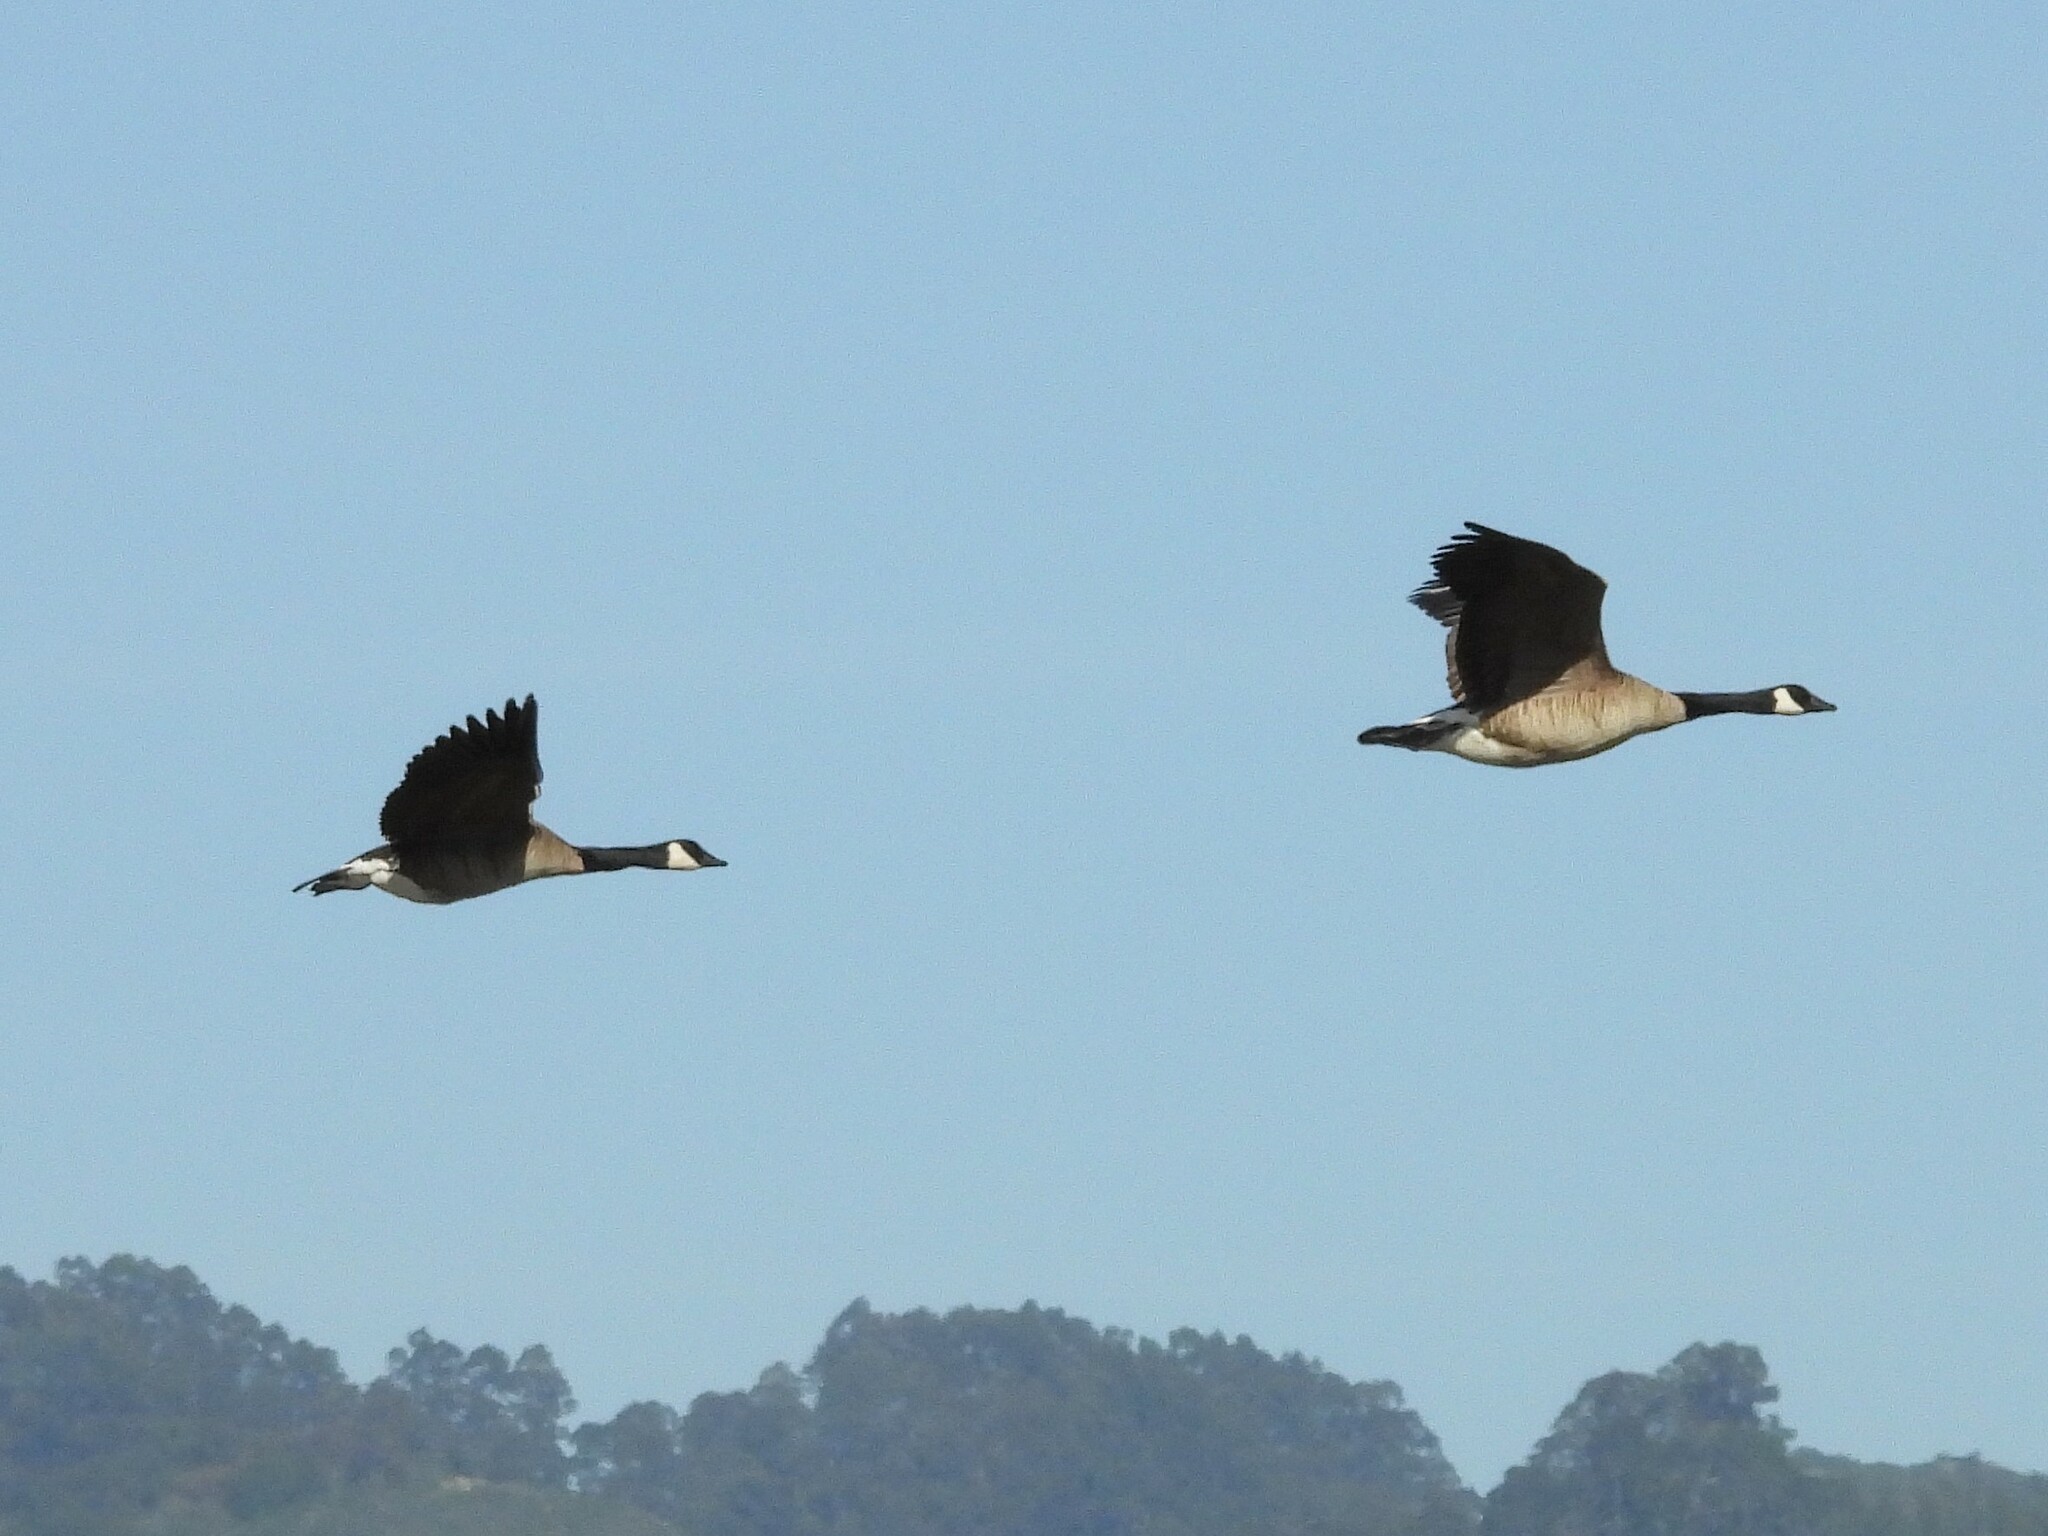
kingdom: Animalia
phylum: Chordata
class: Aves
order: Anseriformes
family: Anatidae
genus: Branta
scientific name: Branta canadensis
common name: Canada goose
